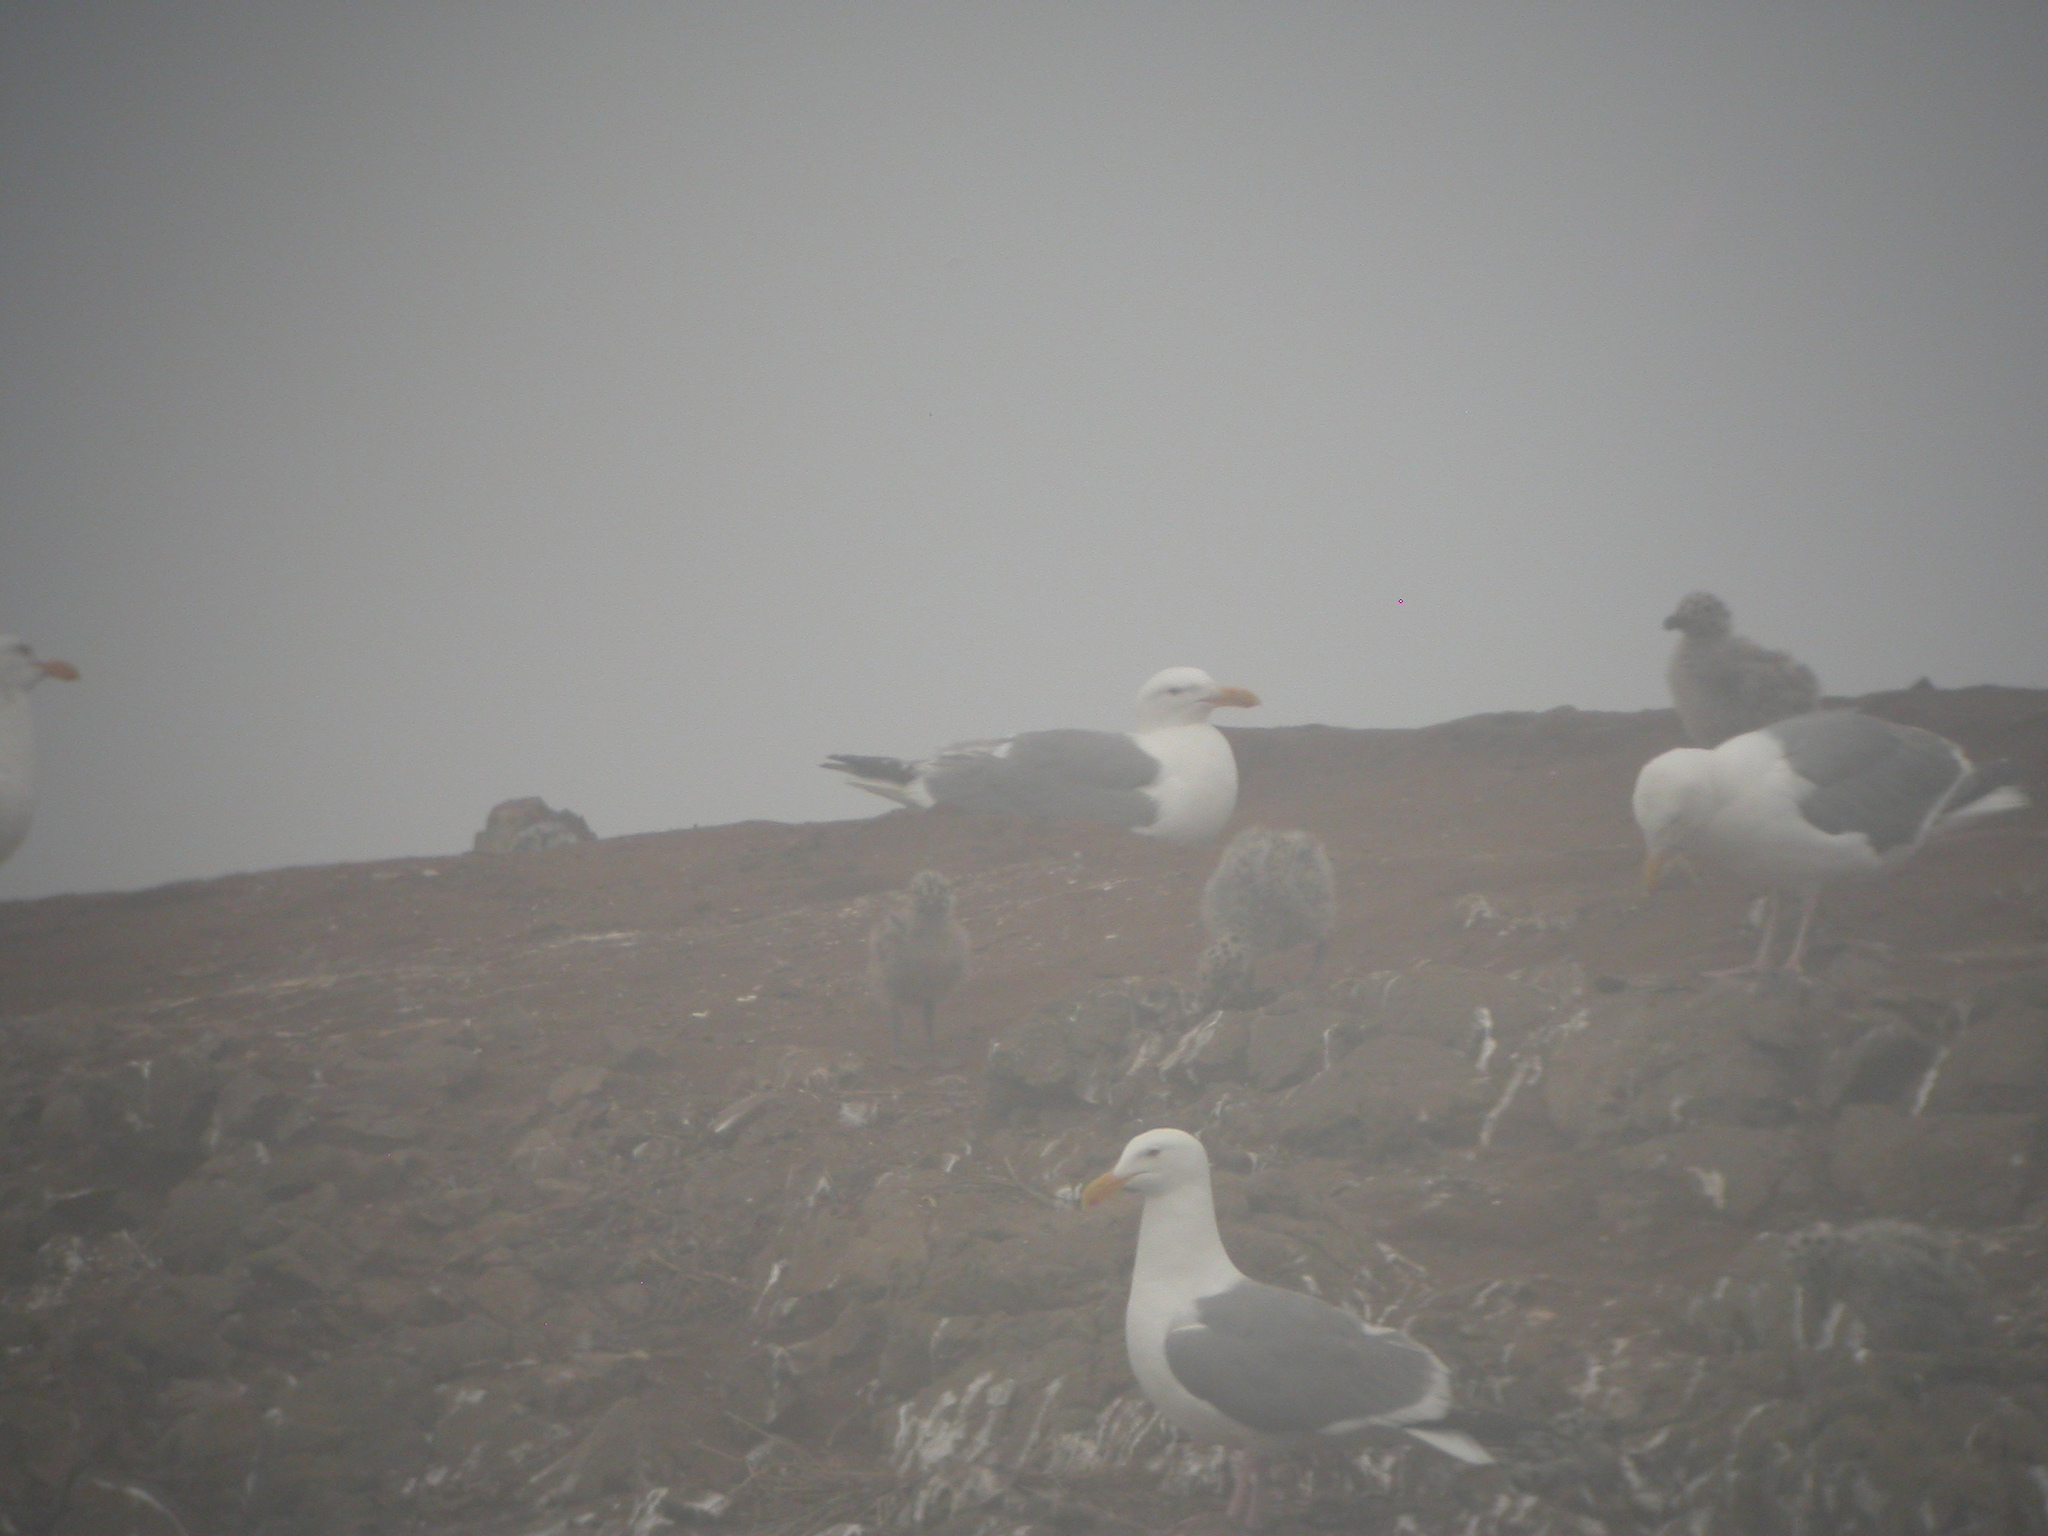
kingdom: Animalia
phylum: Chordata
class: Aves
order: Charadriiformes
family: Laridae
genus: Larus
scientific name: Larus occidentalis
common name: Western gull
